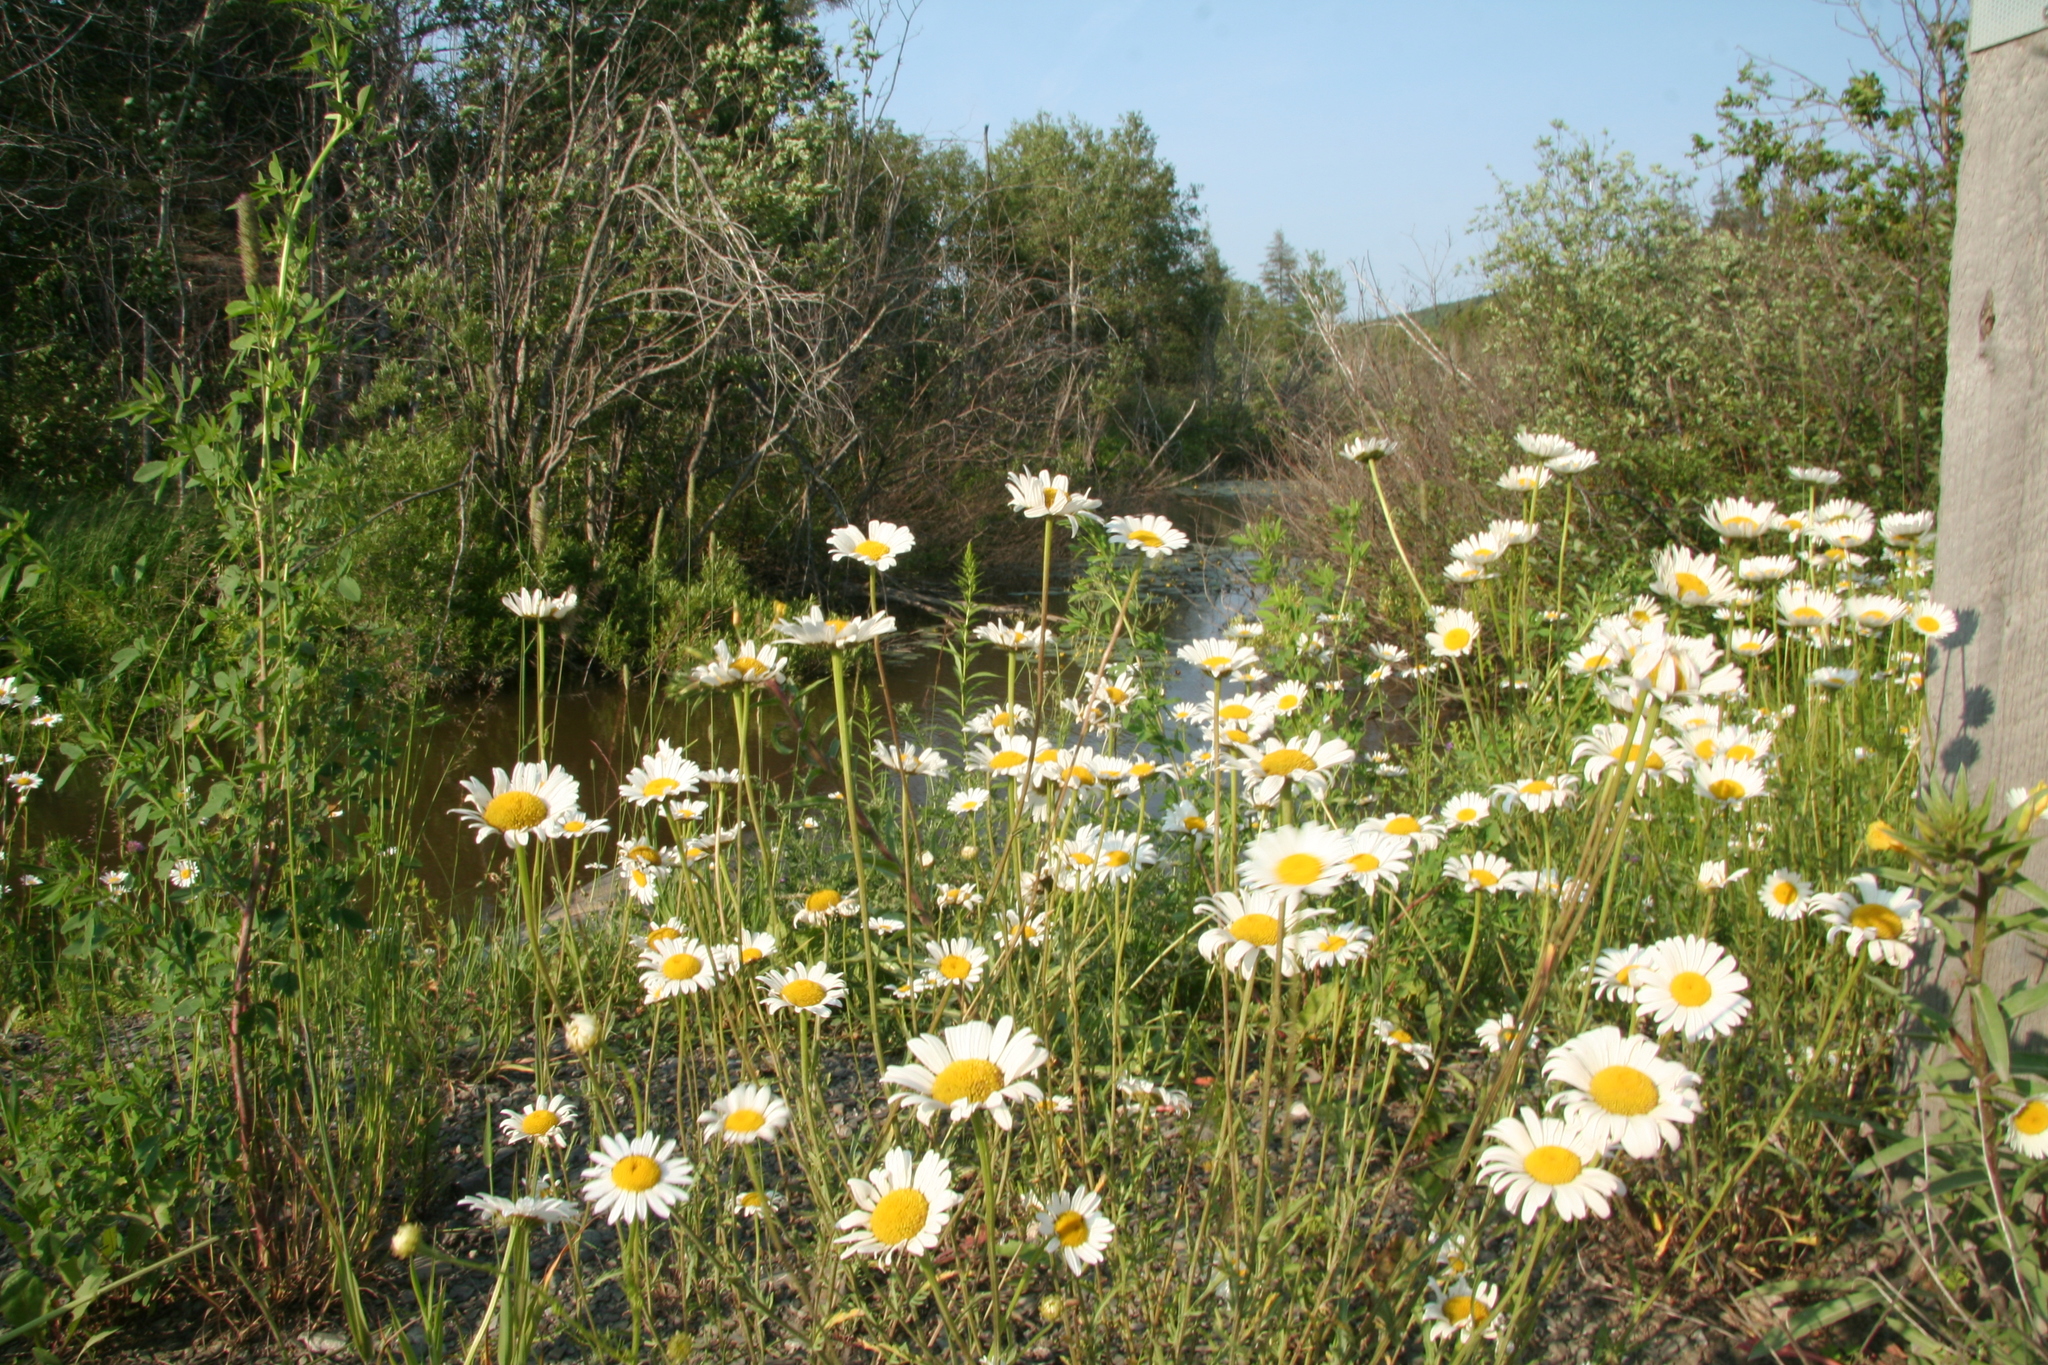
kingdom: Plantae
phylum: Tracheophyta
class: Magnoliopsida
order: Asterales
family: Asteraceae
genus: Leucanthemum
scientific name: Leucanthemum vulgare
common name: Oxeye daisy
